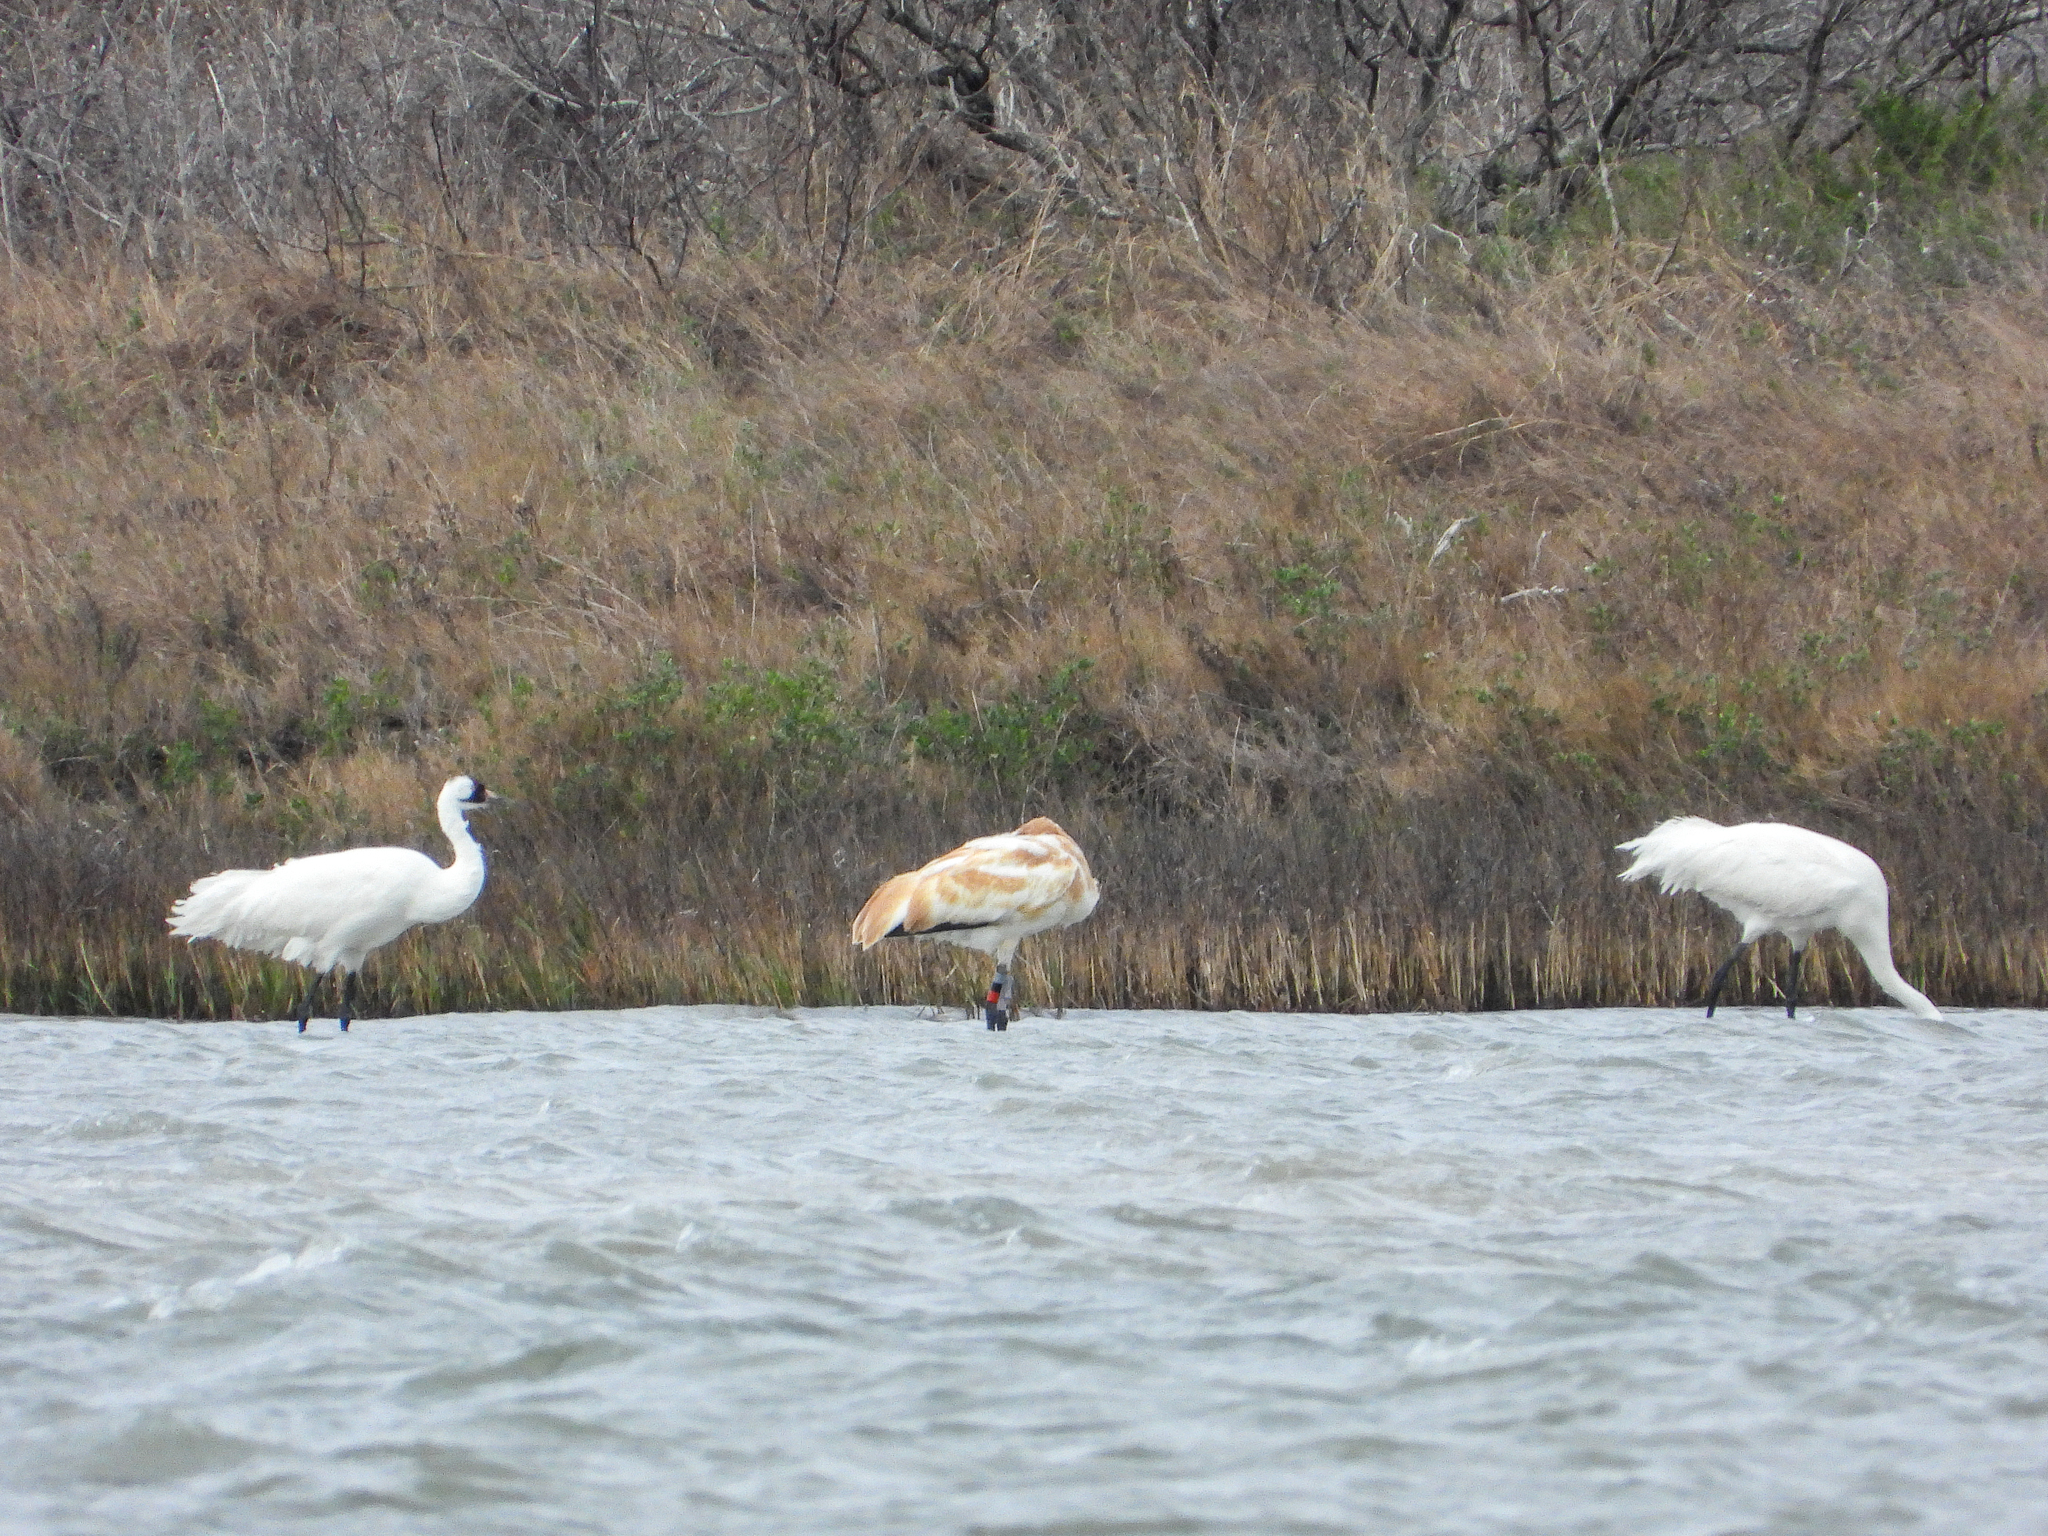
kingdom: Animalia
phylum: Chordata
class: Aves
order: Gruiformes
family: Gruidae
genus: Grus
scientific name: Grus americana
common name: Whooping crane
